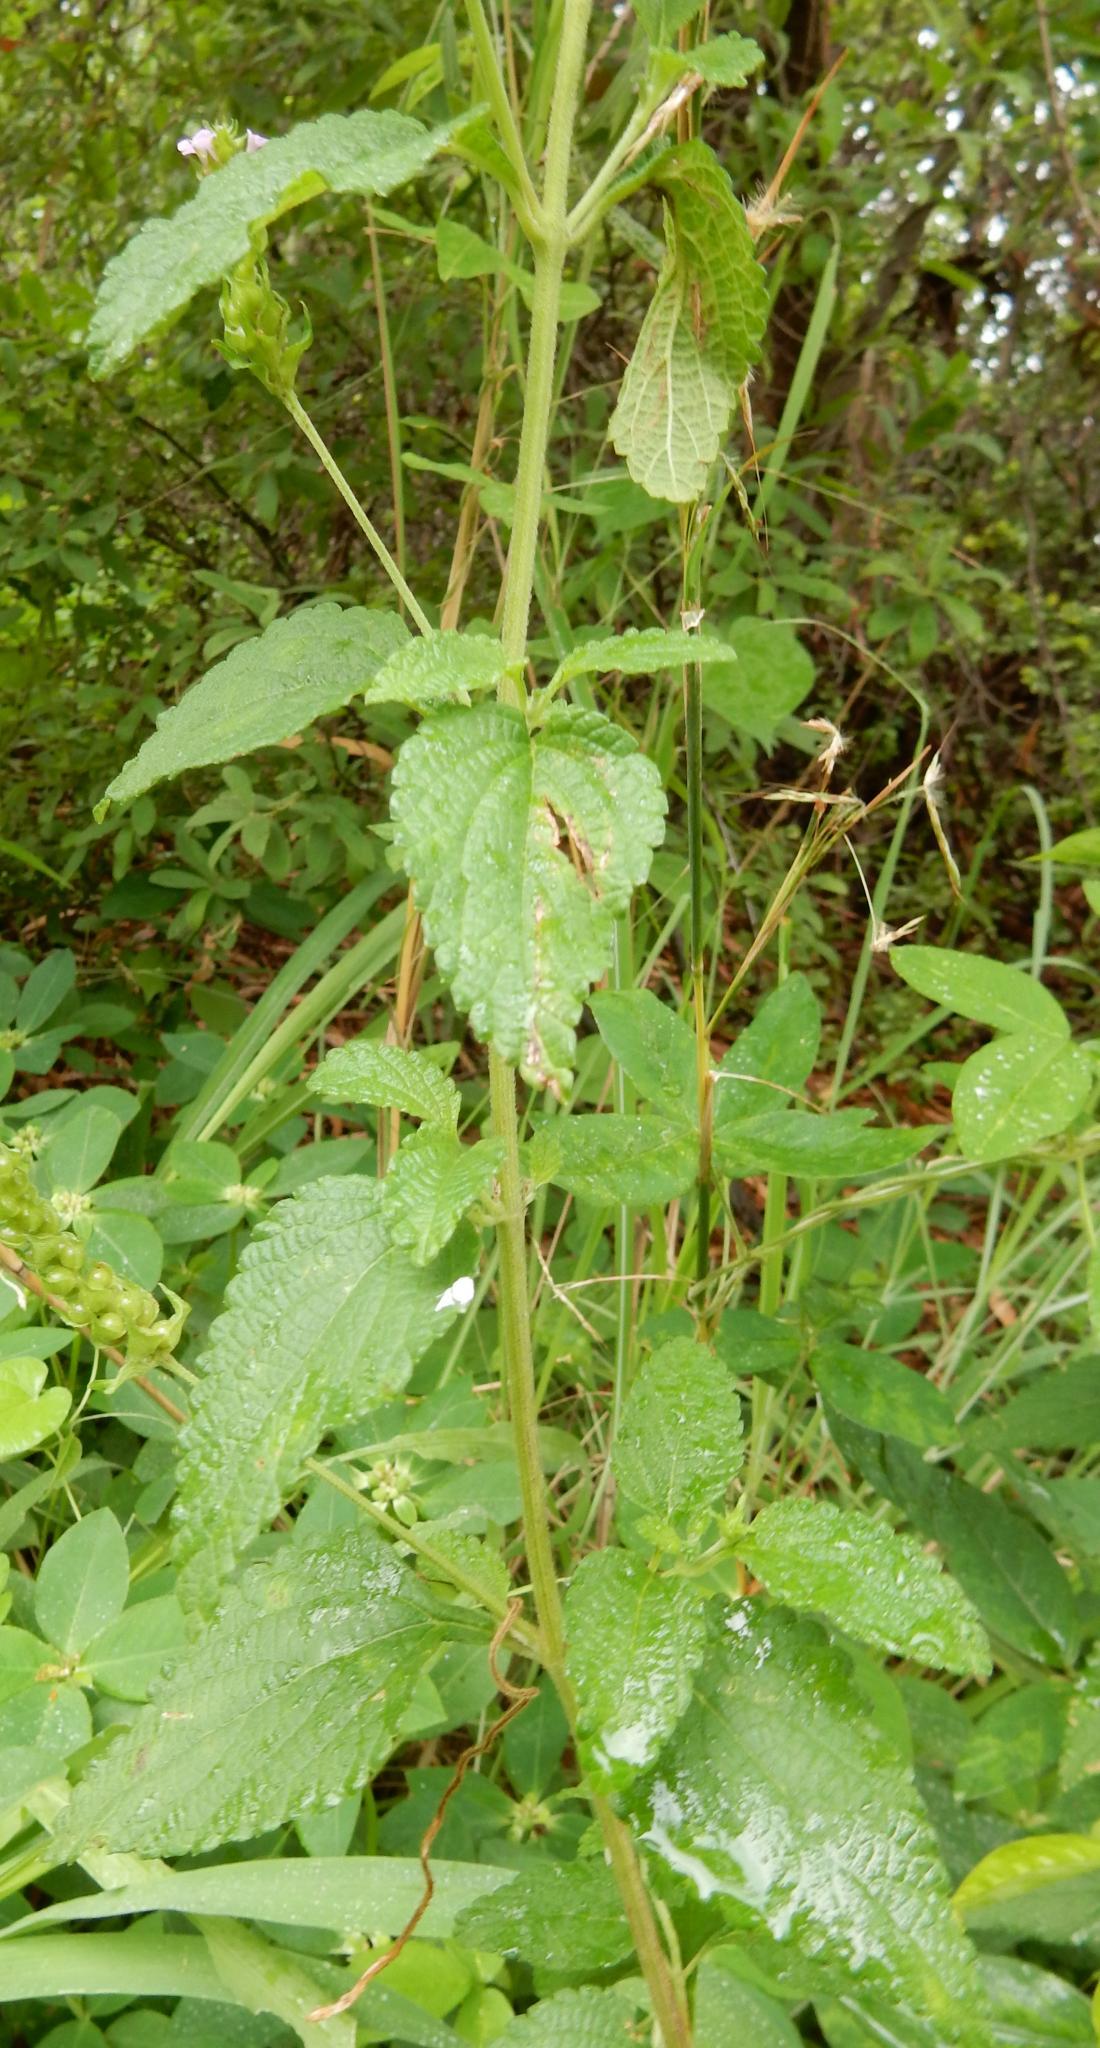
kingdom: Plantae
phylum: Tracheophyta
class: Magnoliopsida
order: Lamiales
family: Verbenaceae
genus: Lantana
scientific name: Lantana rugosa
